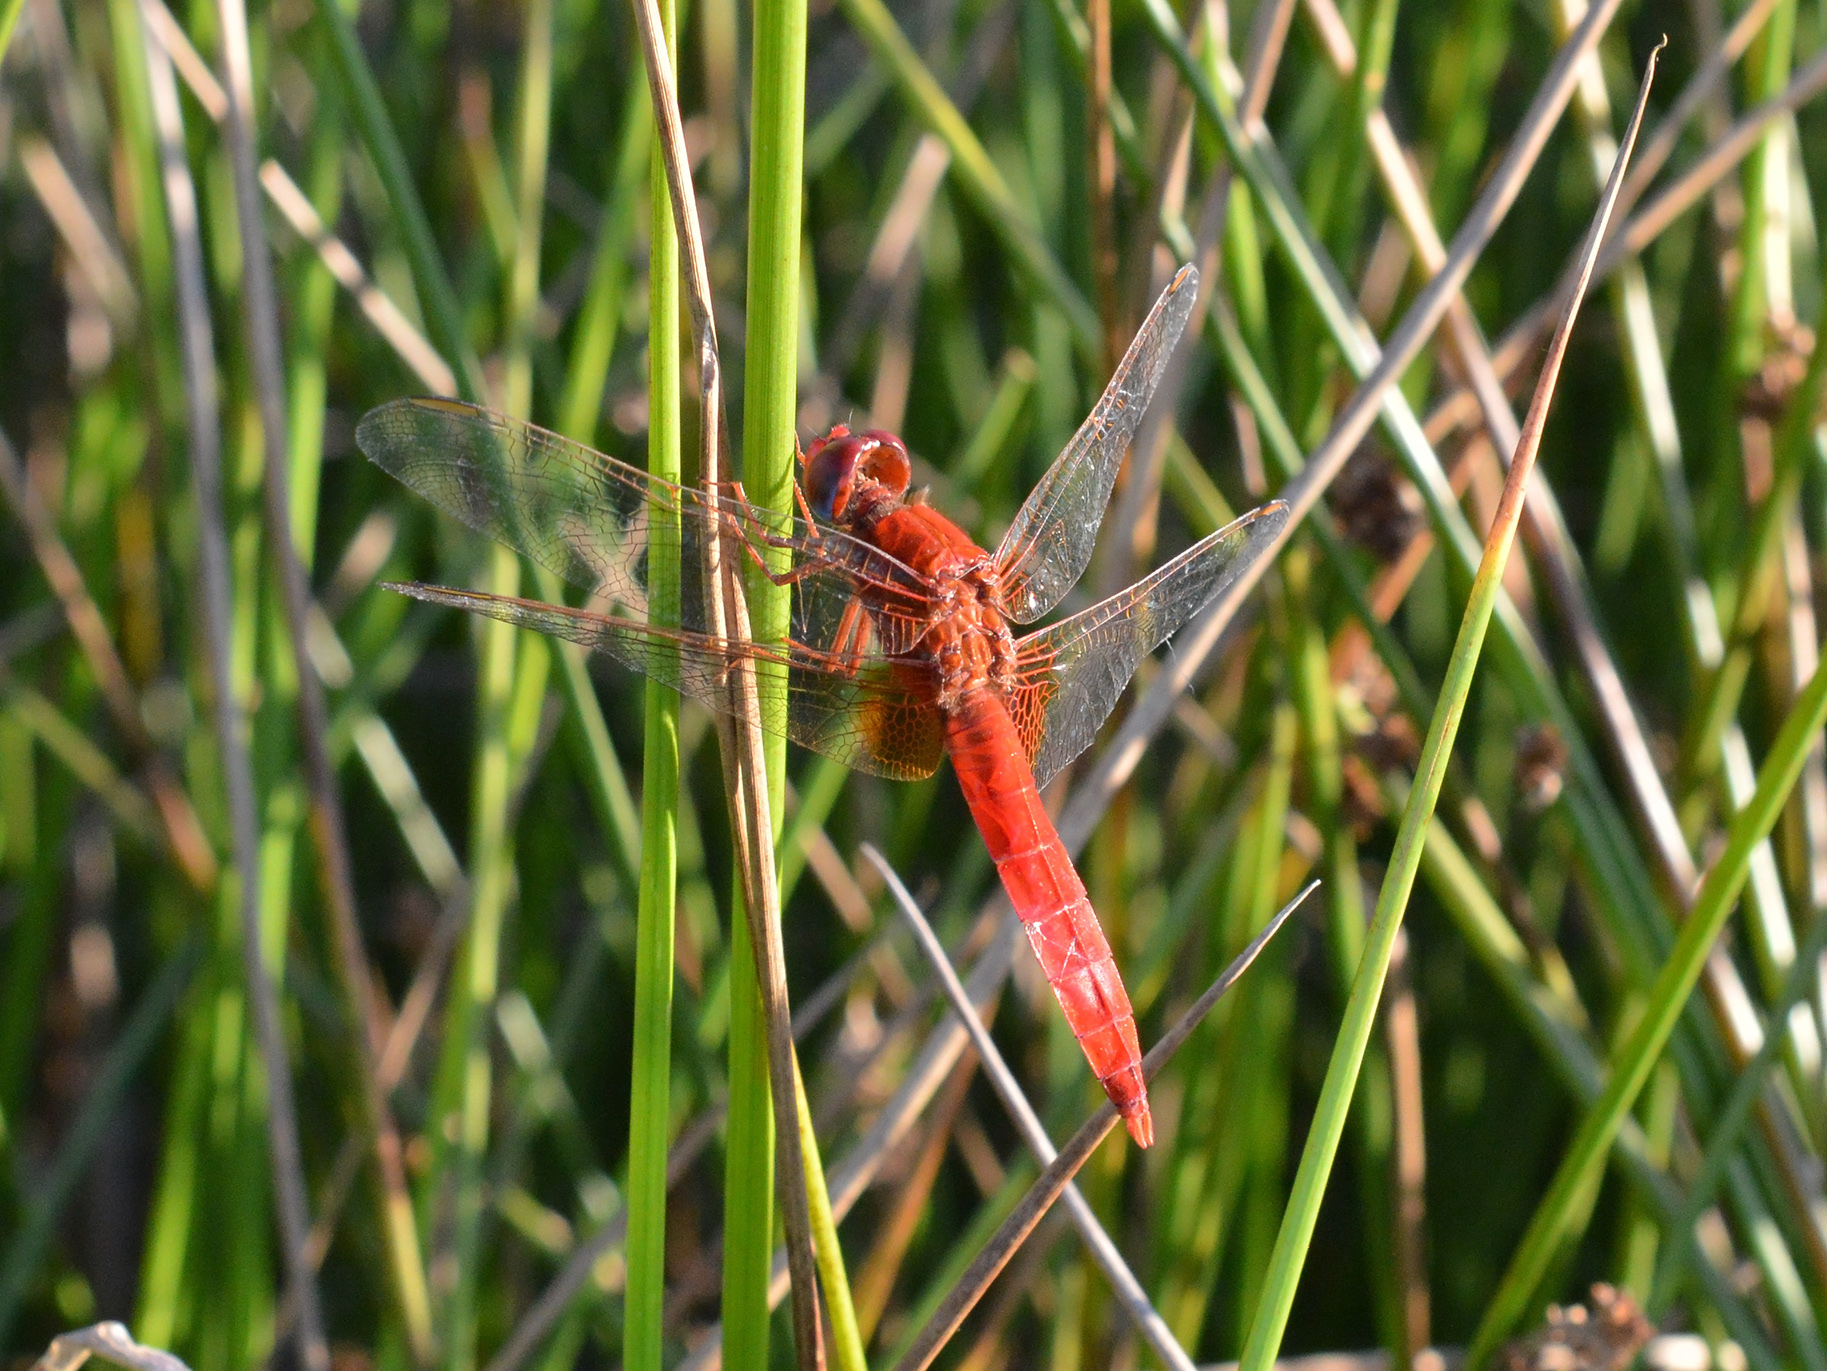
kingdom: Animalia
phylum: Arthropoda
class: Insecta
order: Odonata
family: Libellulidae
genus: Crocothemis
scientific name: Crocothemis erythraea
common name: Scarlet dragonfly
